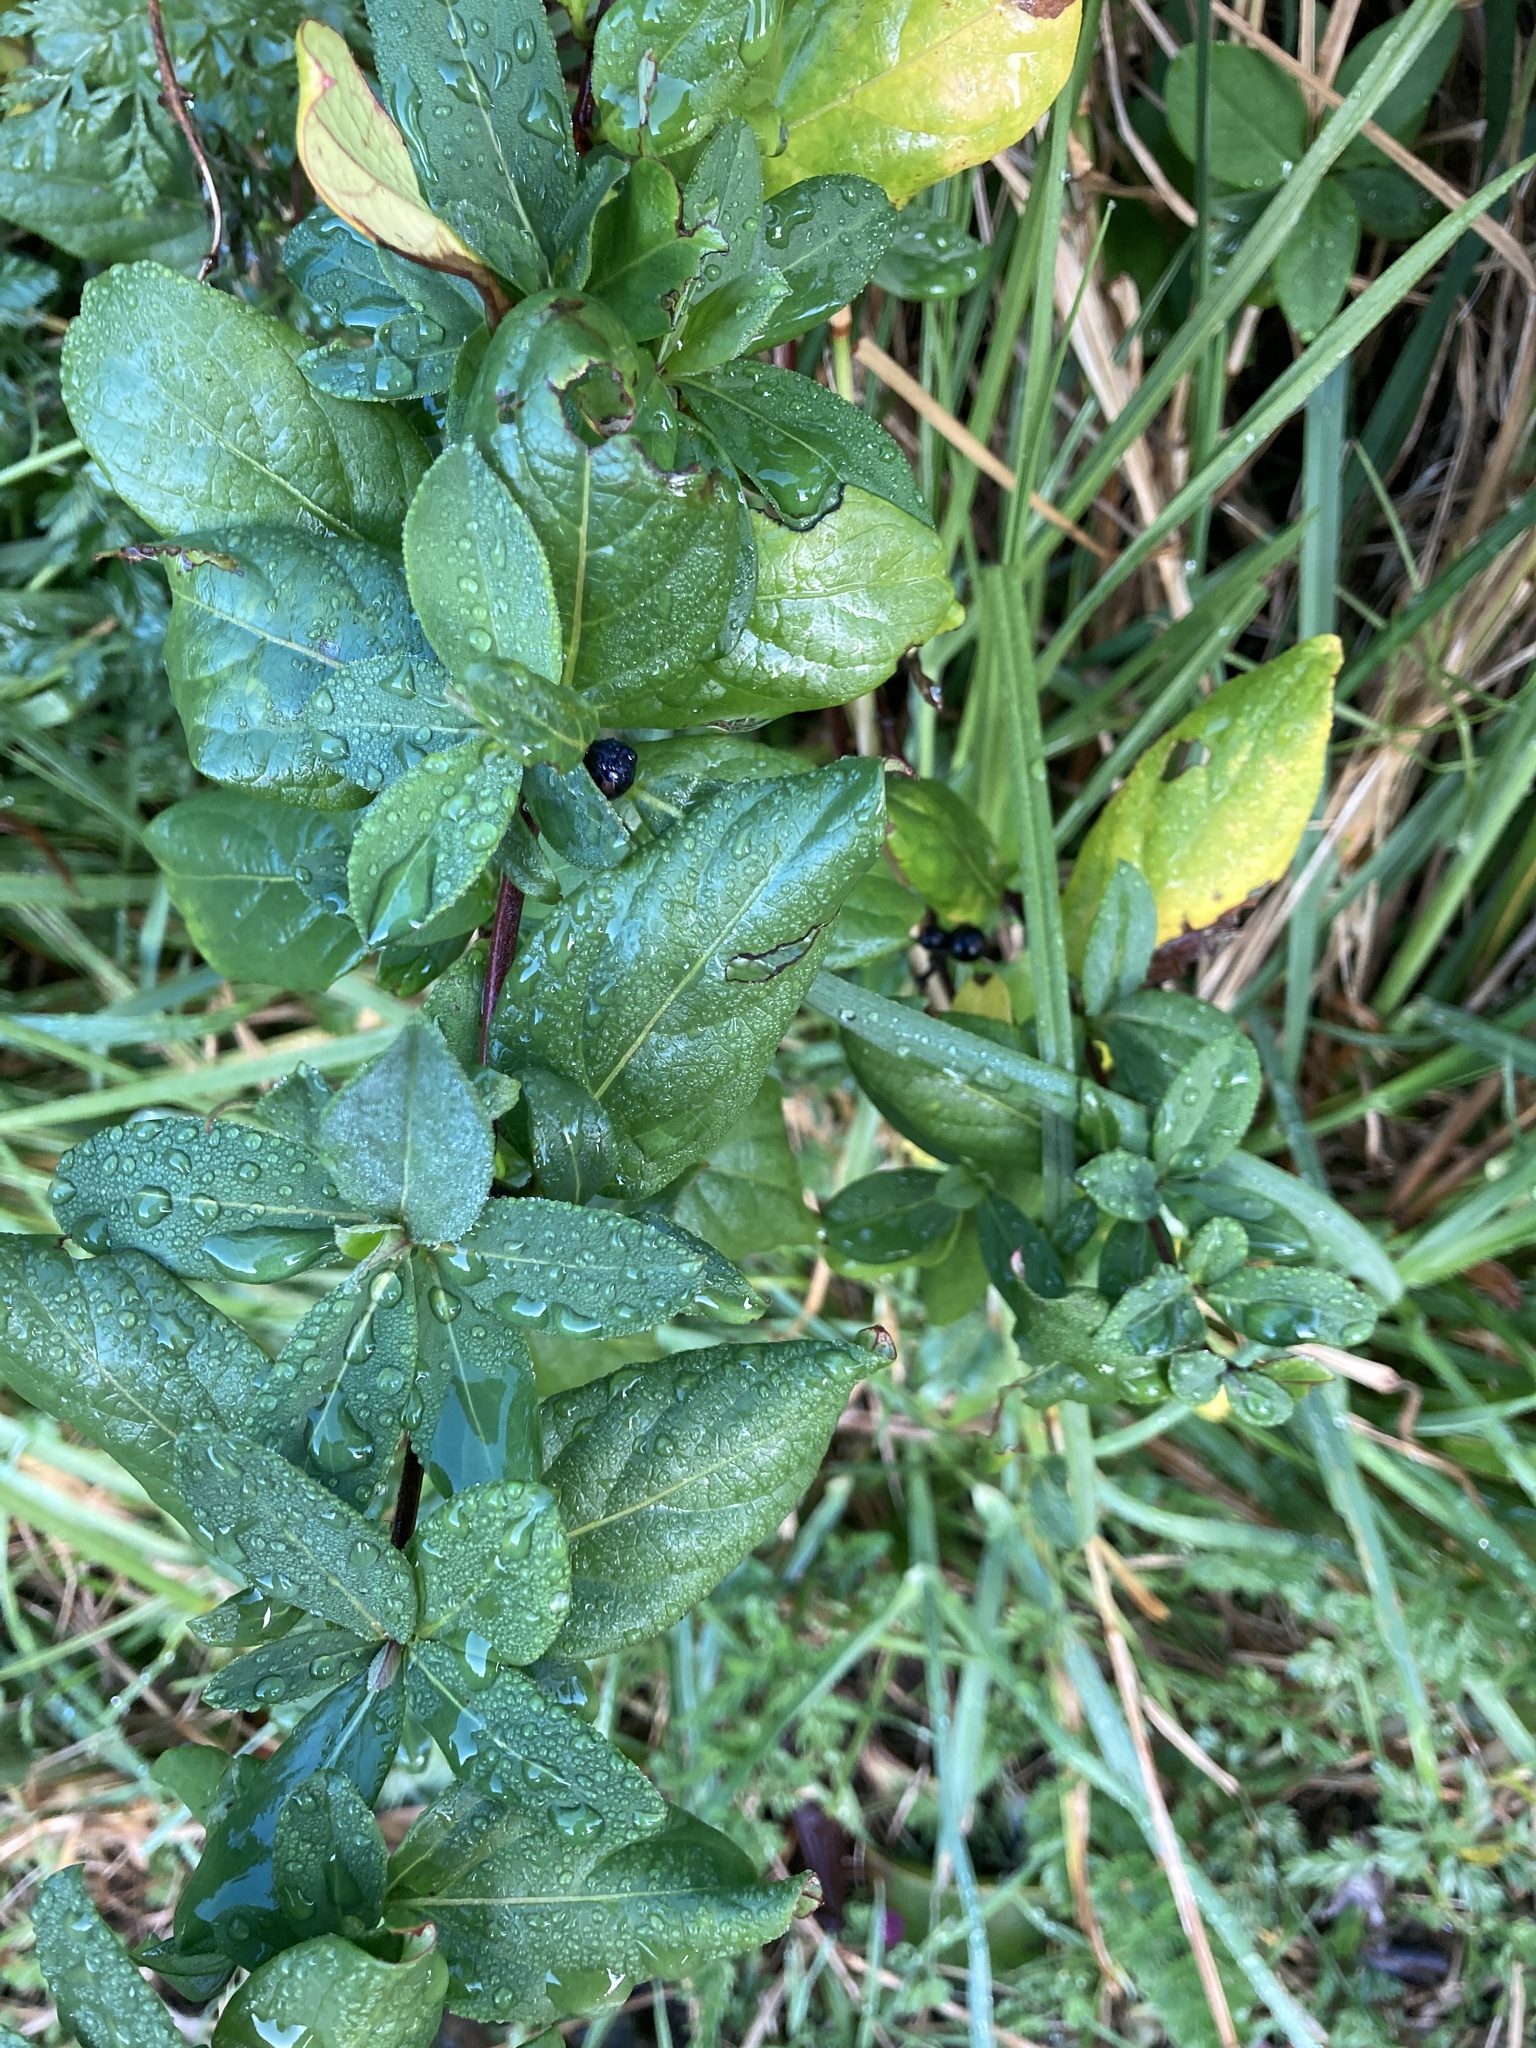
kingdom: Plantae
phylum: Tracheophyta
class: Magnoliopsida
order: Dipsacales
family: Caprifoliaceae
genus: Lonicera
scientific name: Lonicera japonica
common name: Japanese honeysuckle
